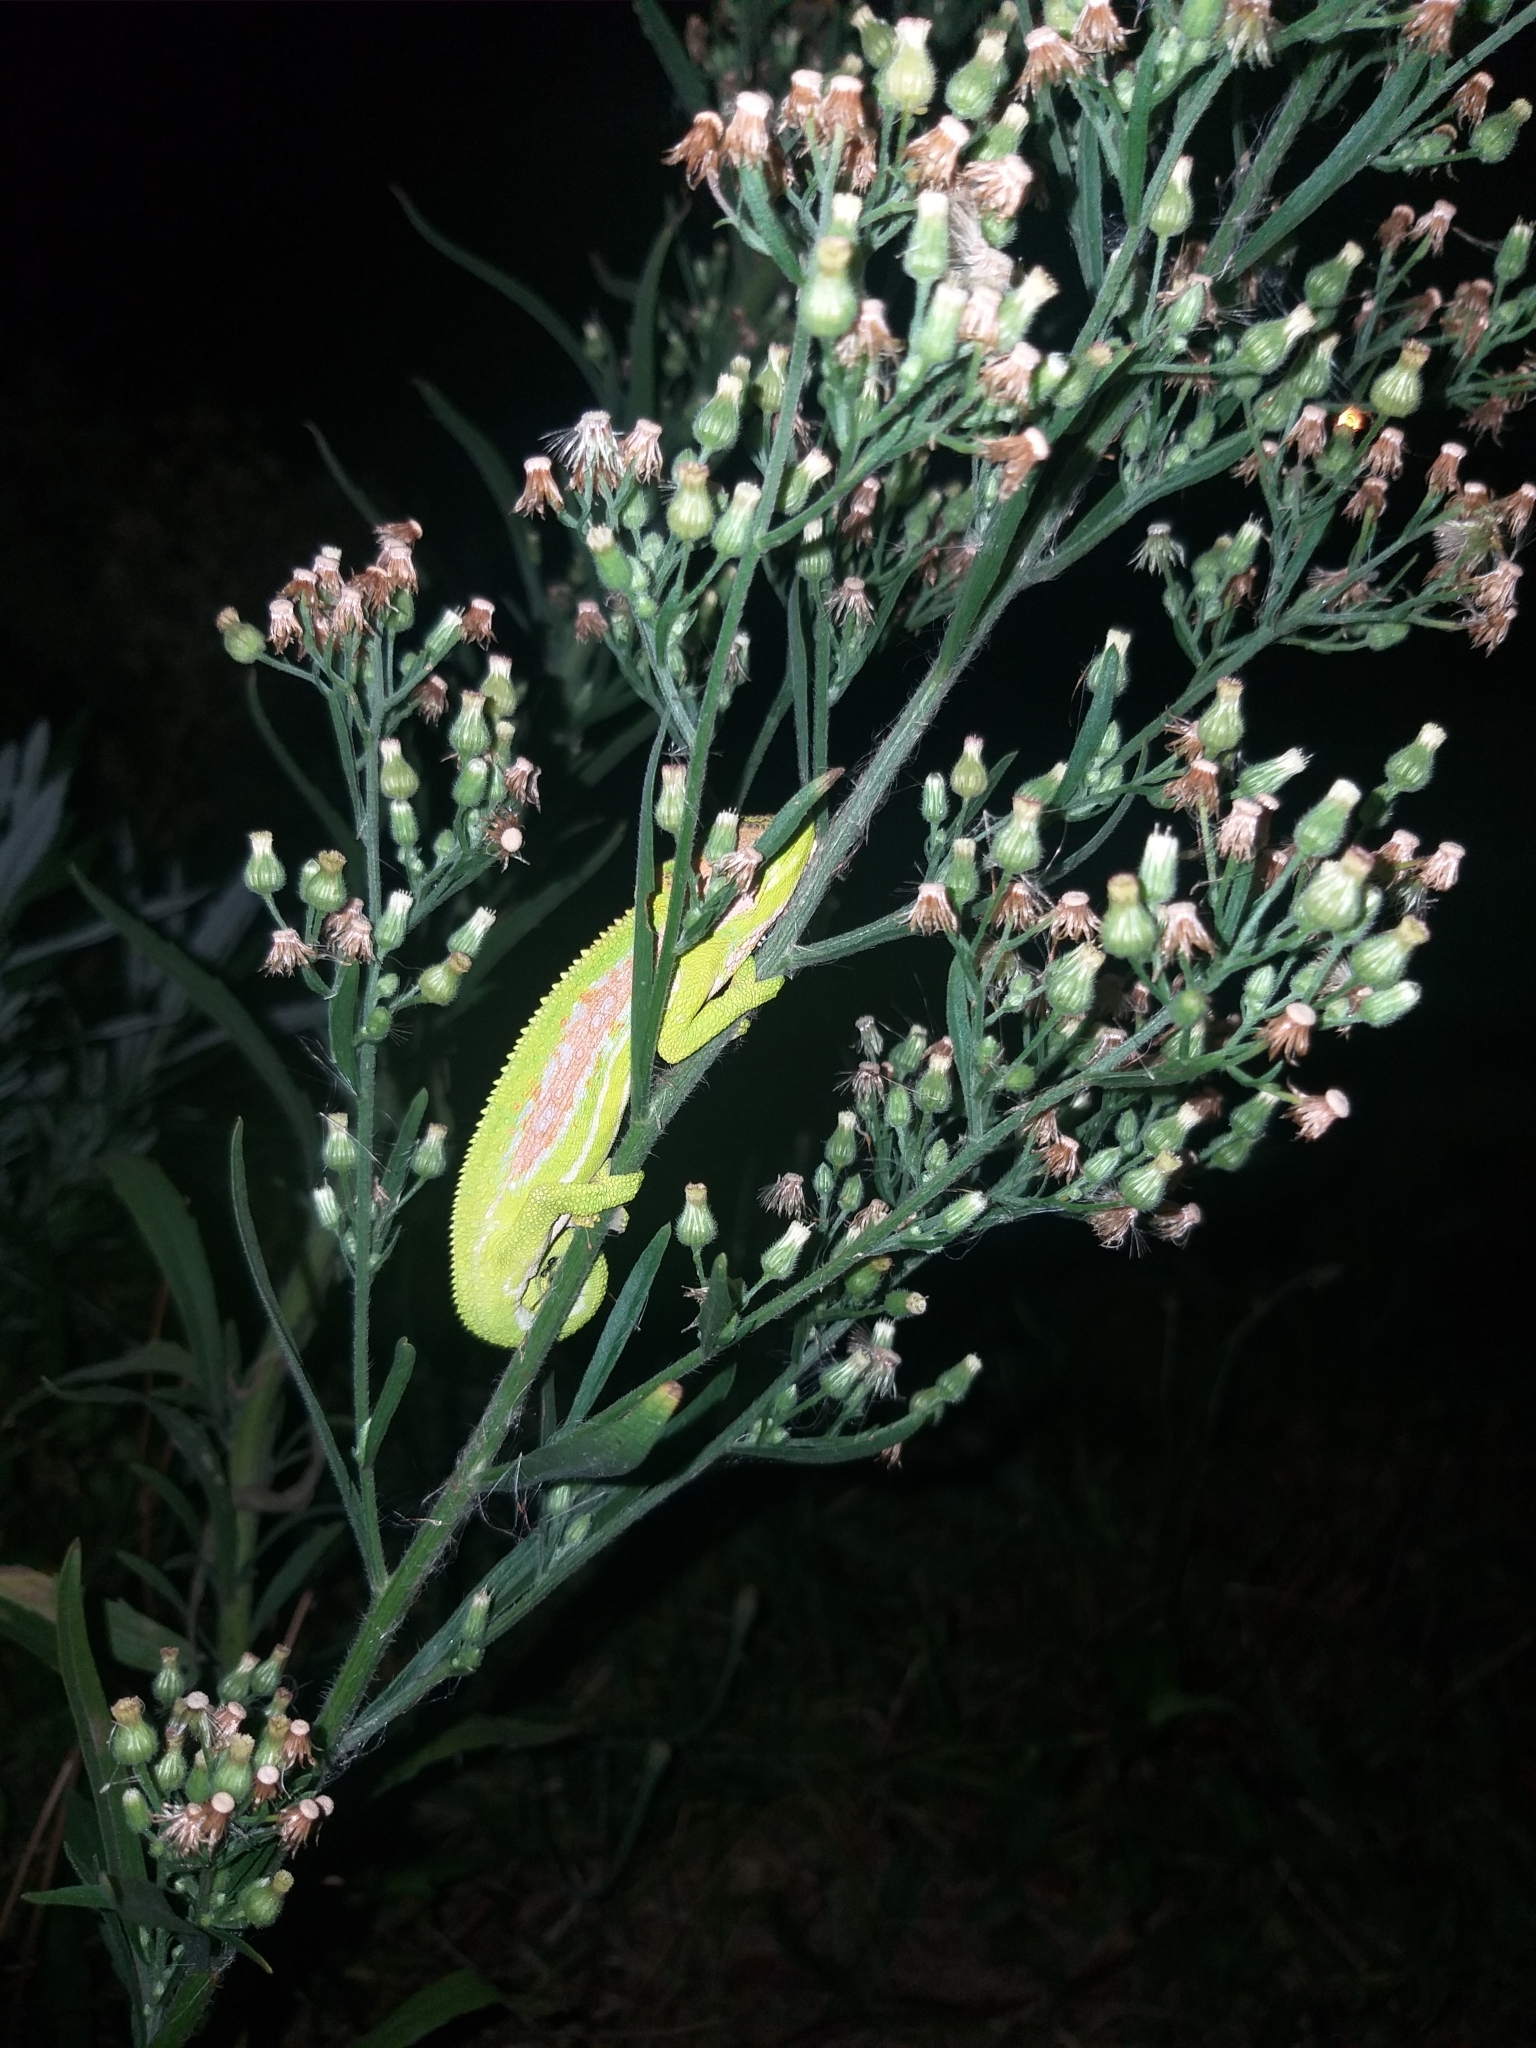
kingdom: Animalia
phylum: Chordata
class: Squamata
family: Chamaeleonidae
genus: Bradypodion
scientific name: Bradypodion pumilum
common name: Cape dwarf chameleon
